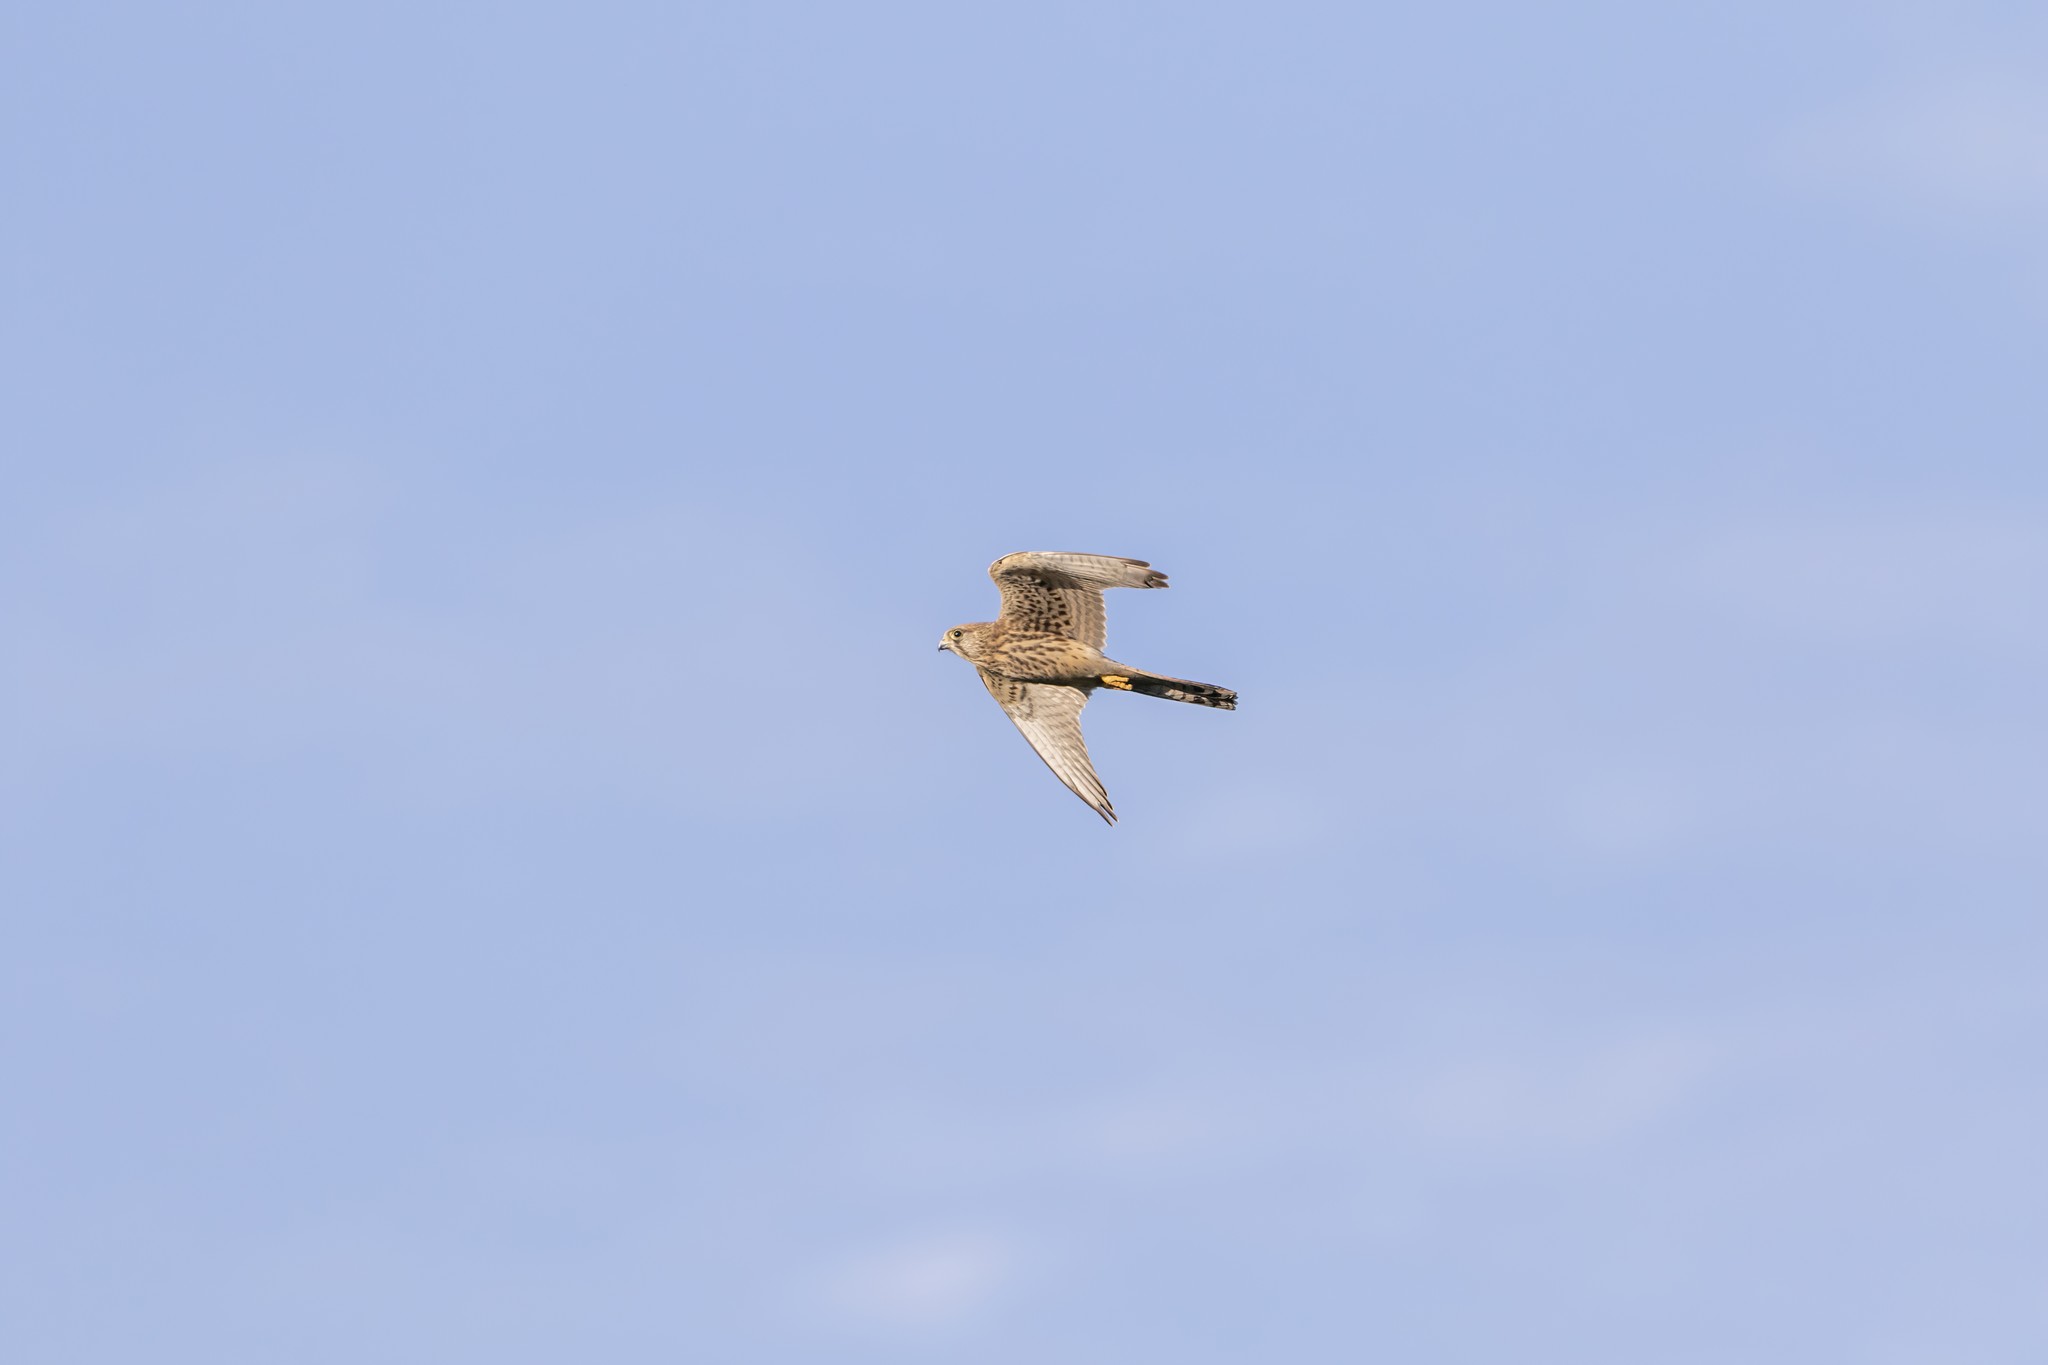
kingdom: Animalia
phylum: Chordata
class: Aves
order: Falconiformes
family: Falconidae
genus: Falco
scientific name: Falco tinnunculus
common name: Common kestrel
